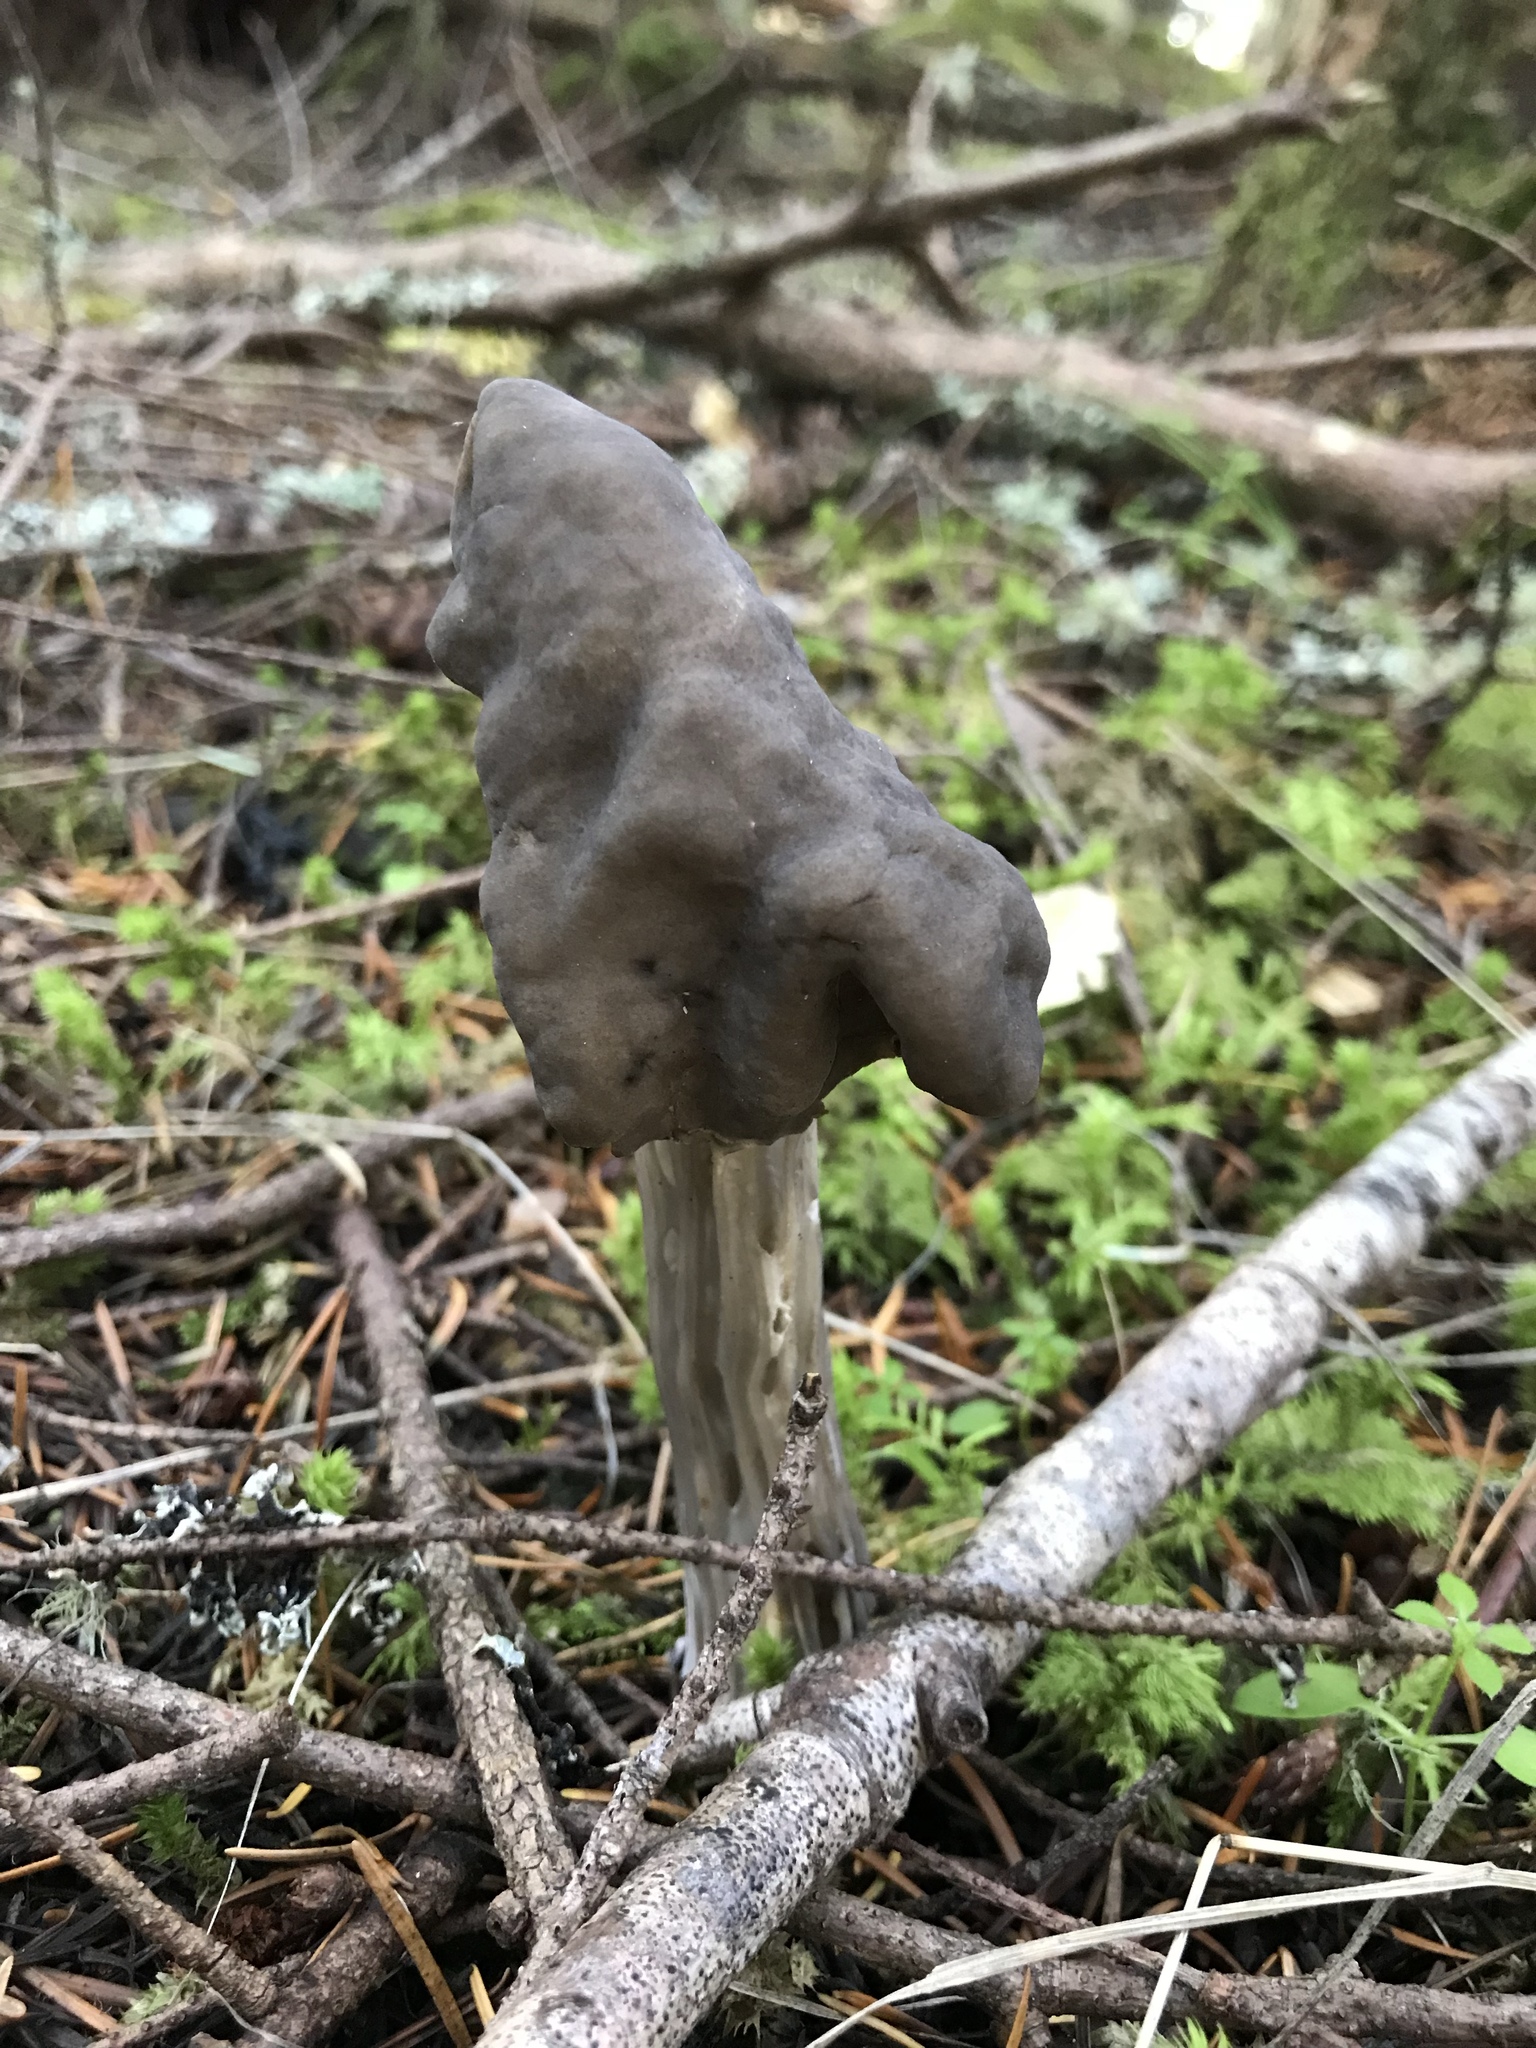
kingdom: Fungi
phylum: Ascomycota
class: Pezizomycetes
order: Pezizales
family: Helvellaceae
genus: Helvella
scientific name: Helvella vespertina
